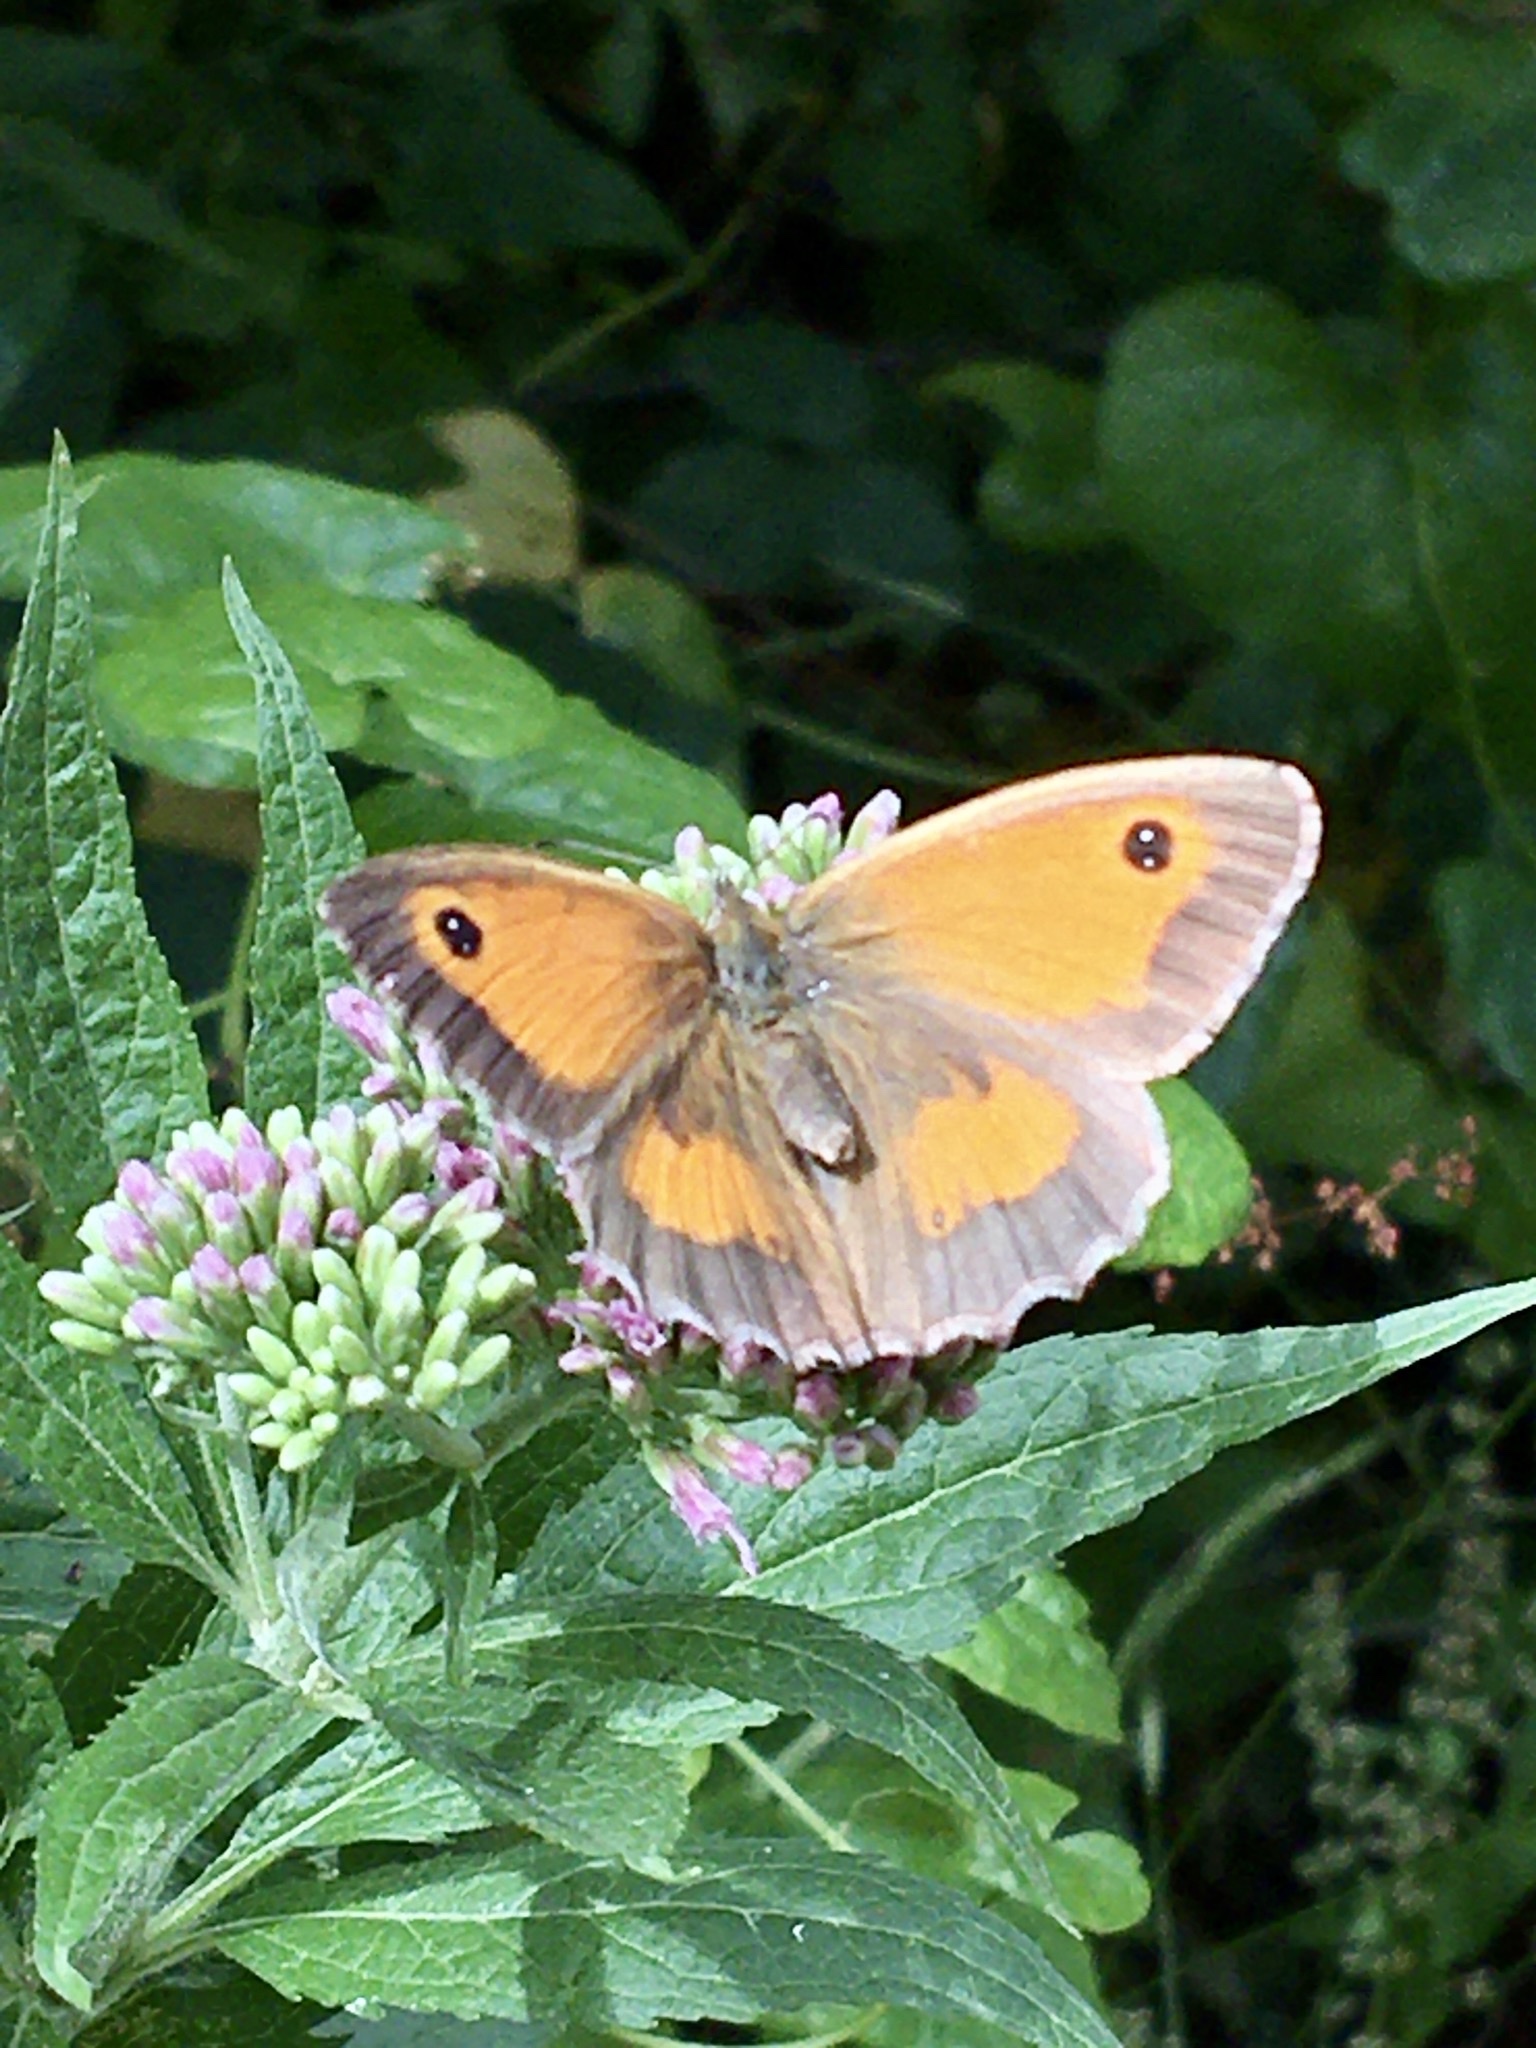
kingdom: Animalia
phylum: Arthropoda
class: Insecta
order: Lepidoptera
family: Nymphalidae
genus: Pyronia
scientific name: Pyronia tithonus
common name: Gatekeeper
